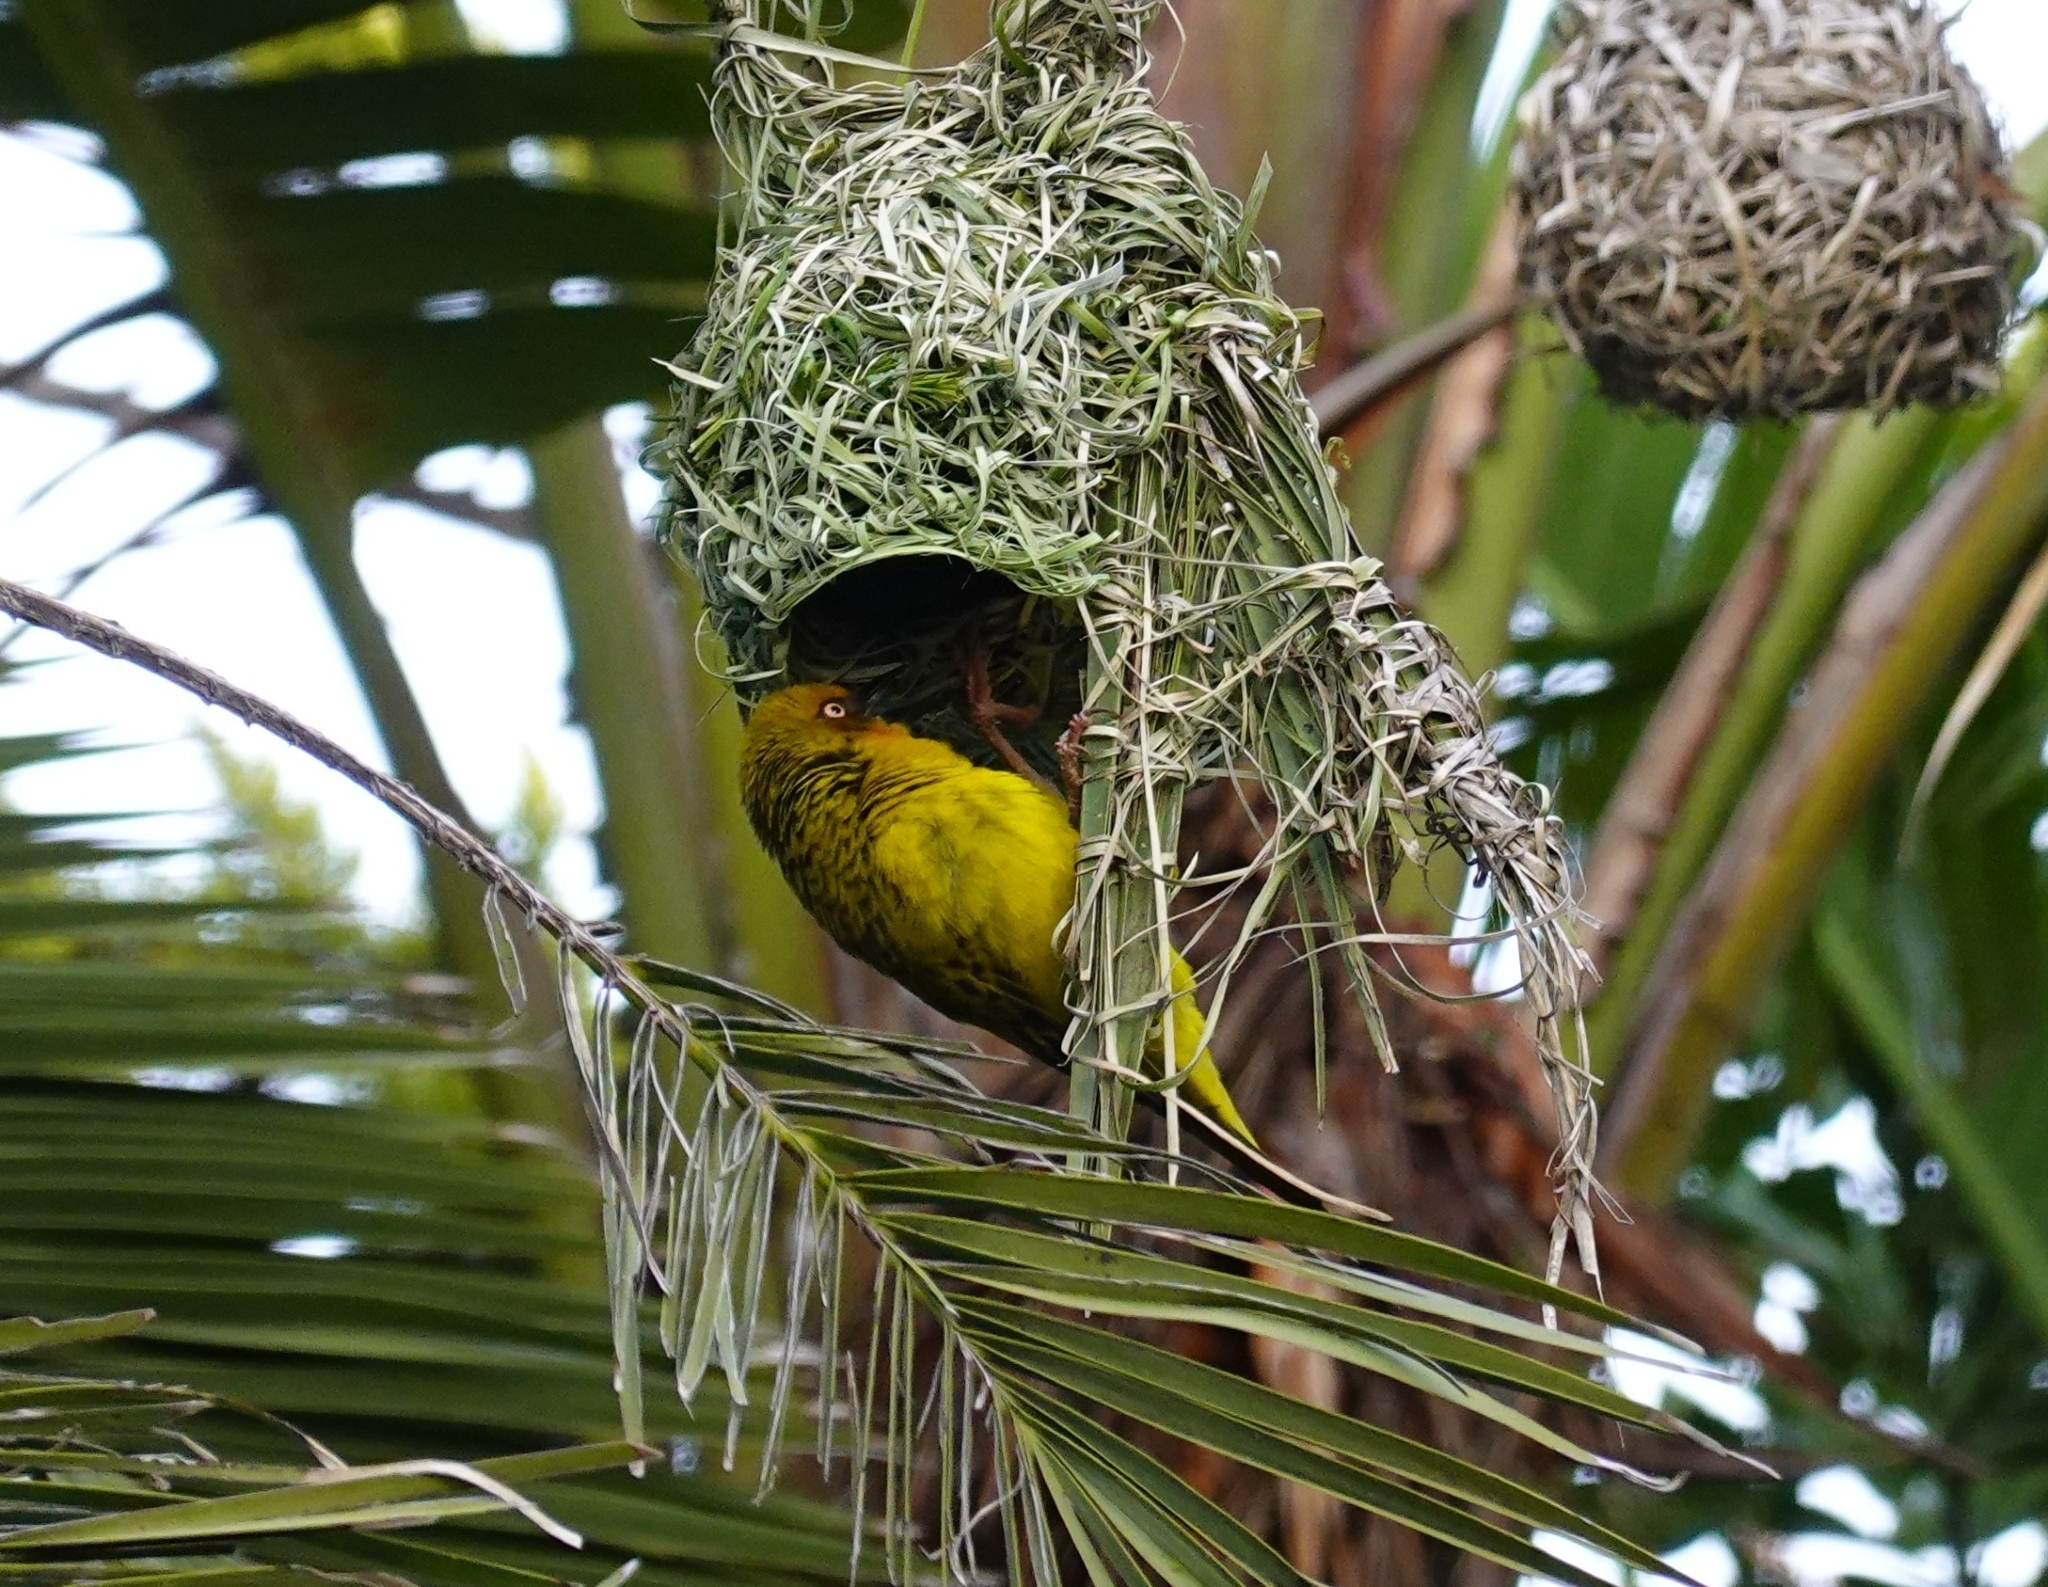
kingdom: Animalia
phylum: Chordata
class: Aves
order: Passeriformes
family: Ploceidae
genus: Ploceus
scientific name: Ploceus capensis
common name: Cape weaver
